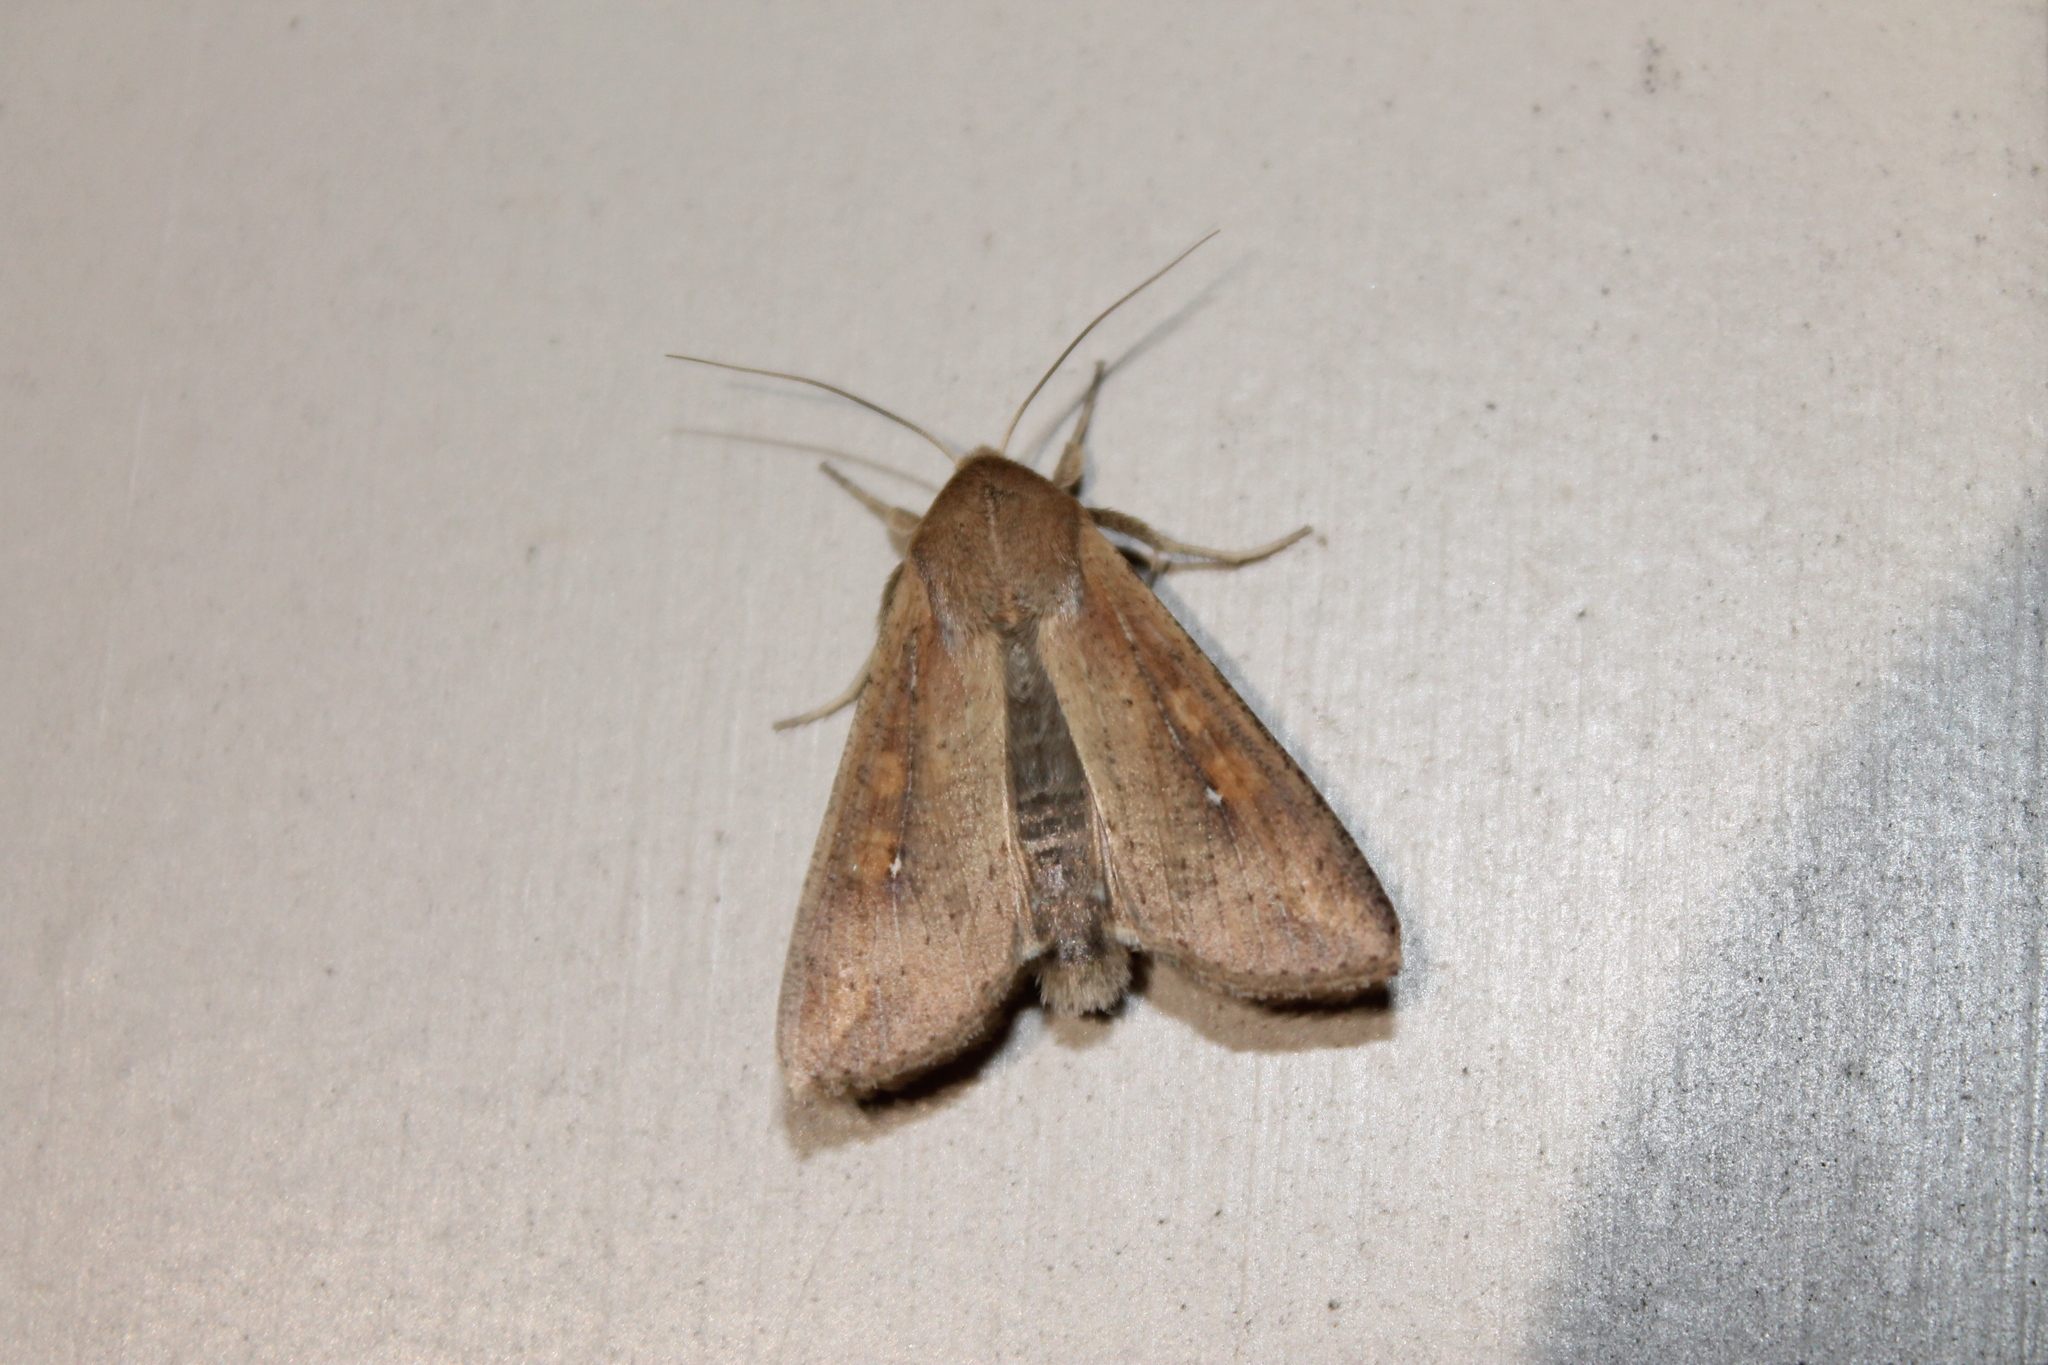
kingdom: Animalia
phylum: Arthropoda
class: Insecta
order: Lepidoptera
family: Noctuidae
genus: Mythimna
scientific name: Mythimna unipuncta
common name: White-speck
